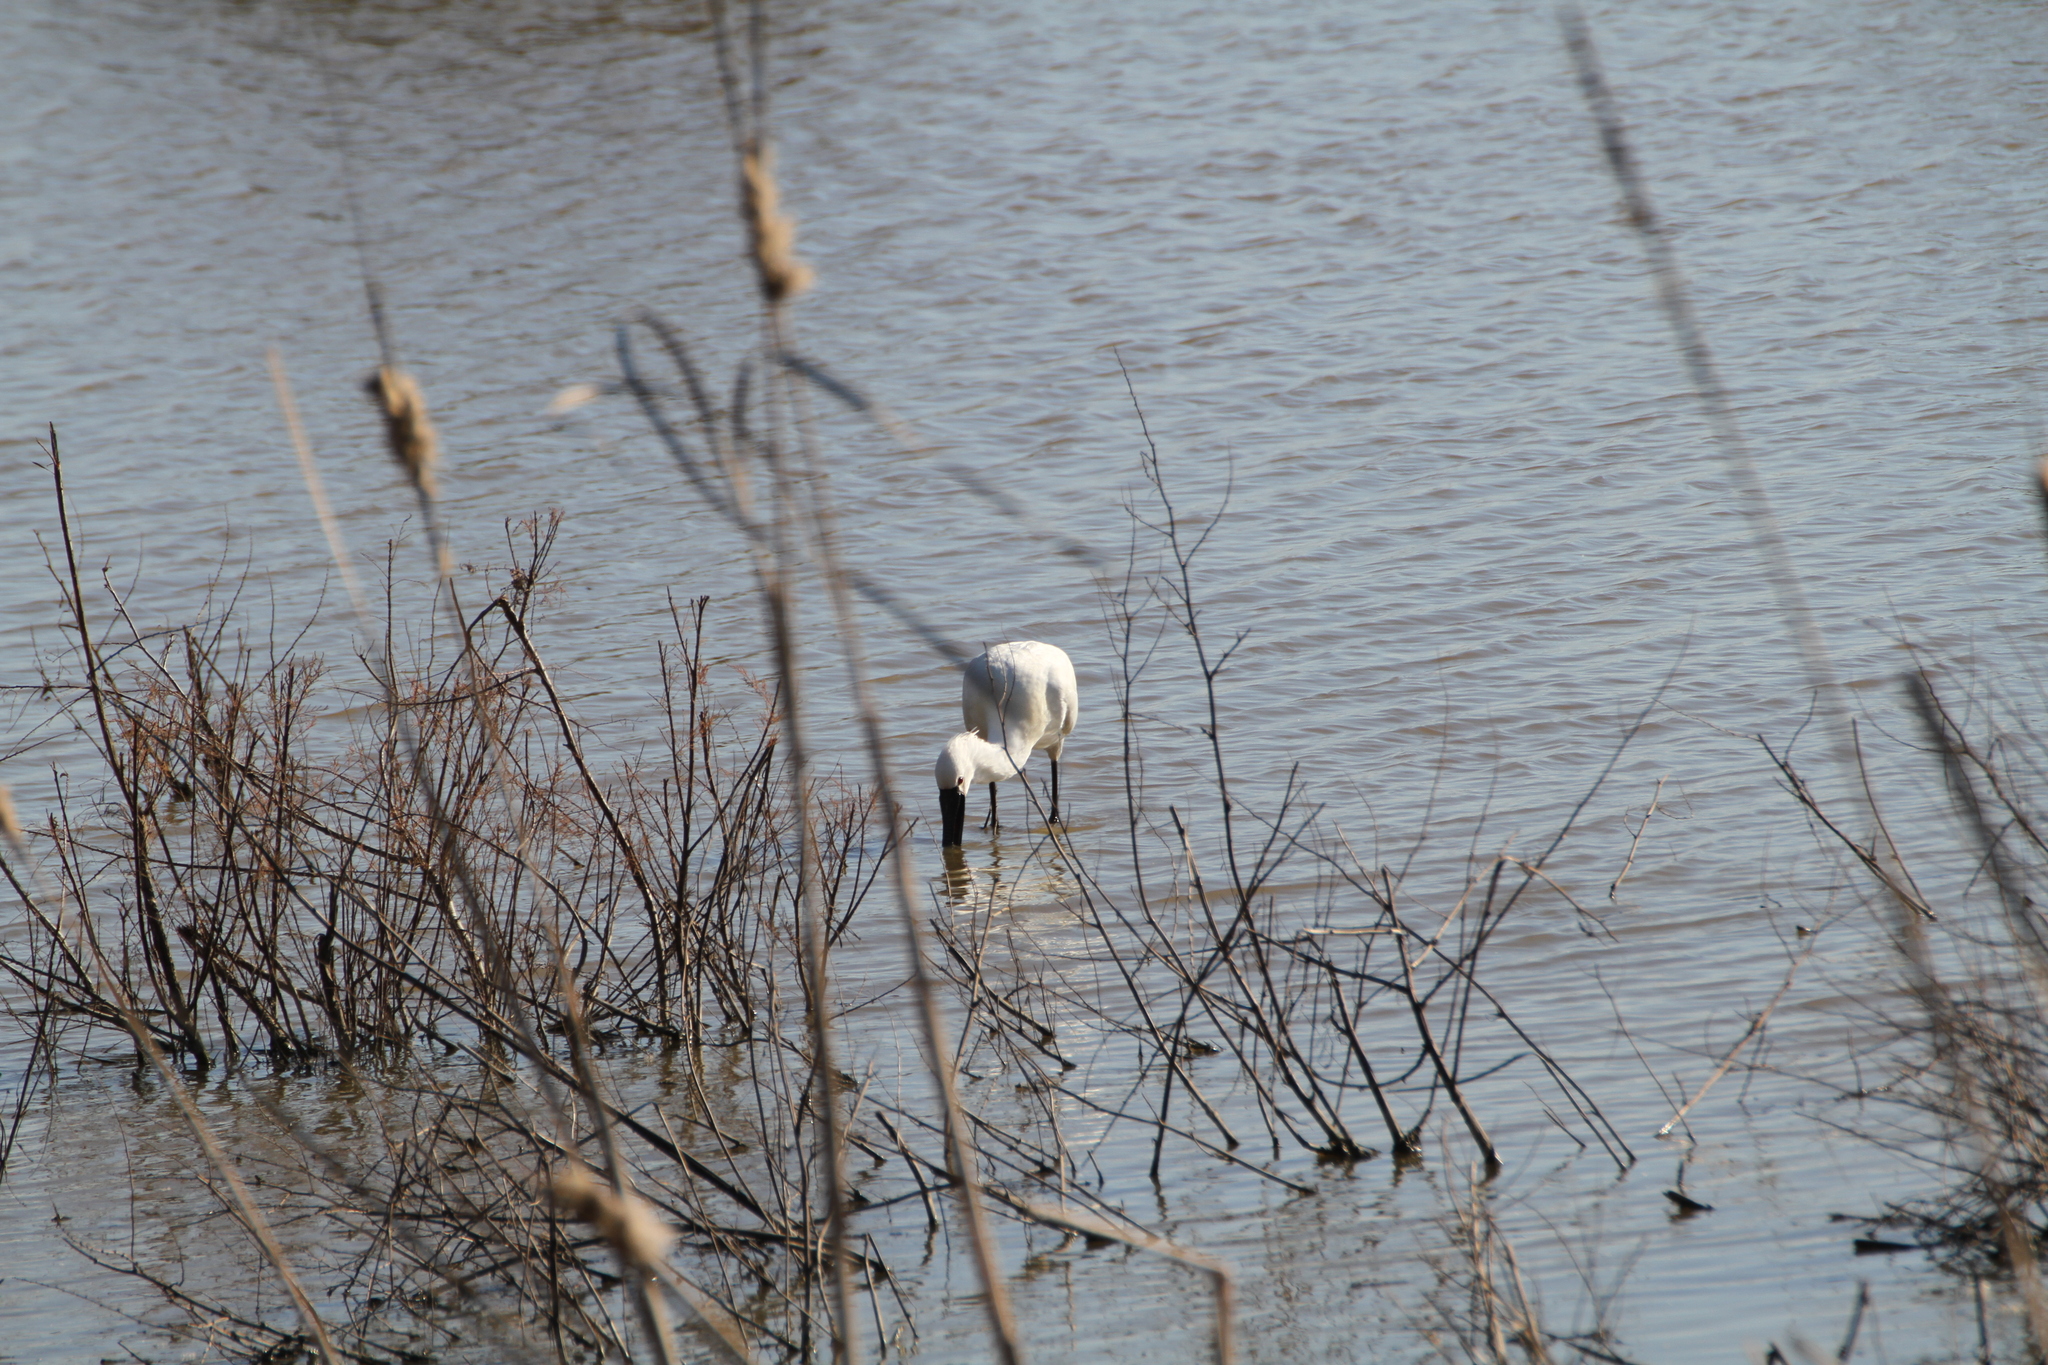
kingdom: Animalia
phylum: Chordata
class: Aves
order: Pelecaniformes
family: Threskiornithidae
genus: Platalea
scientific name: Platalea leucorodia
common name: Eurasian spoonbill
